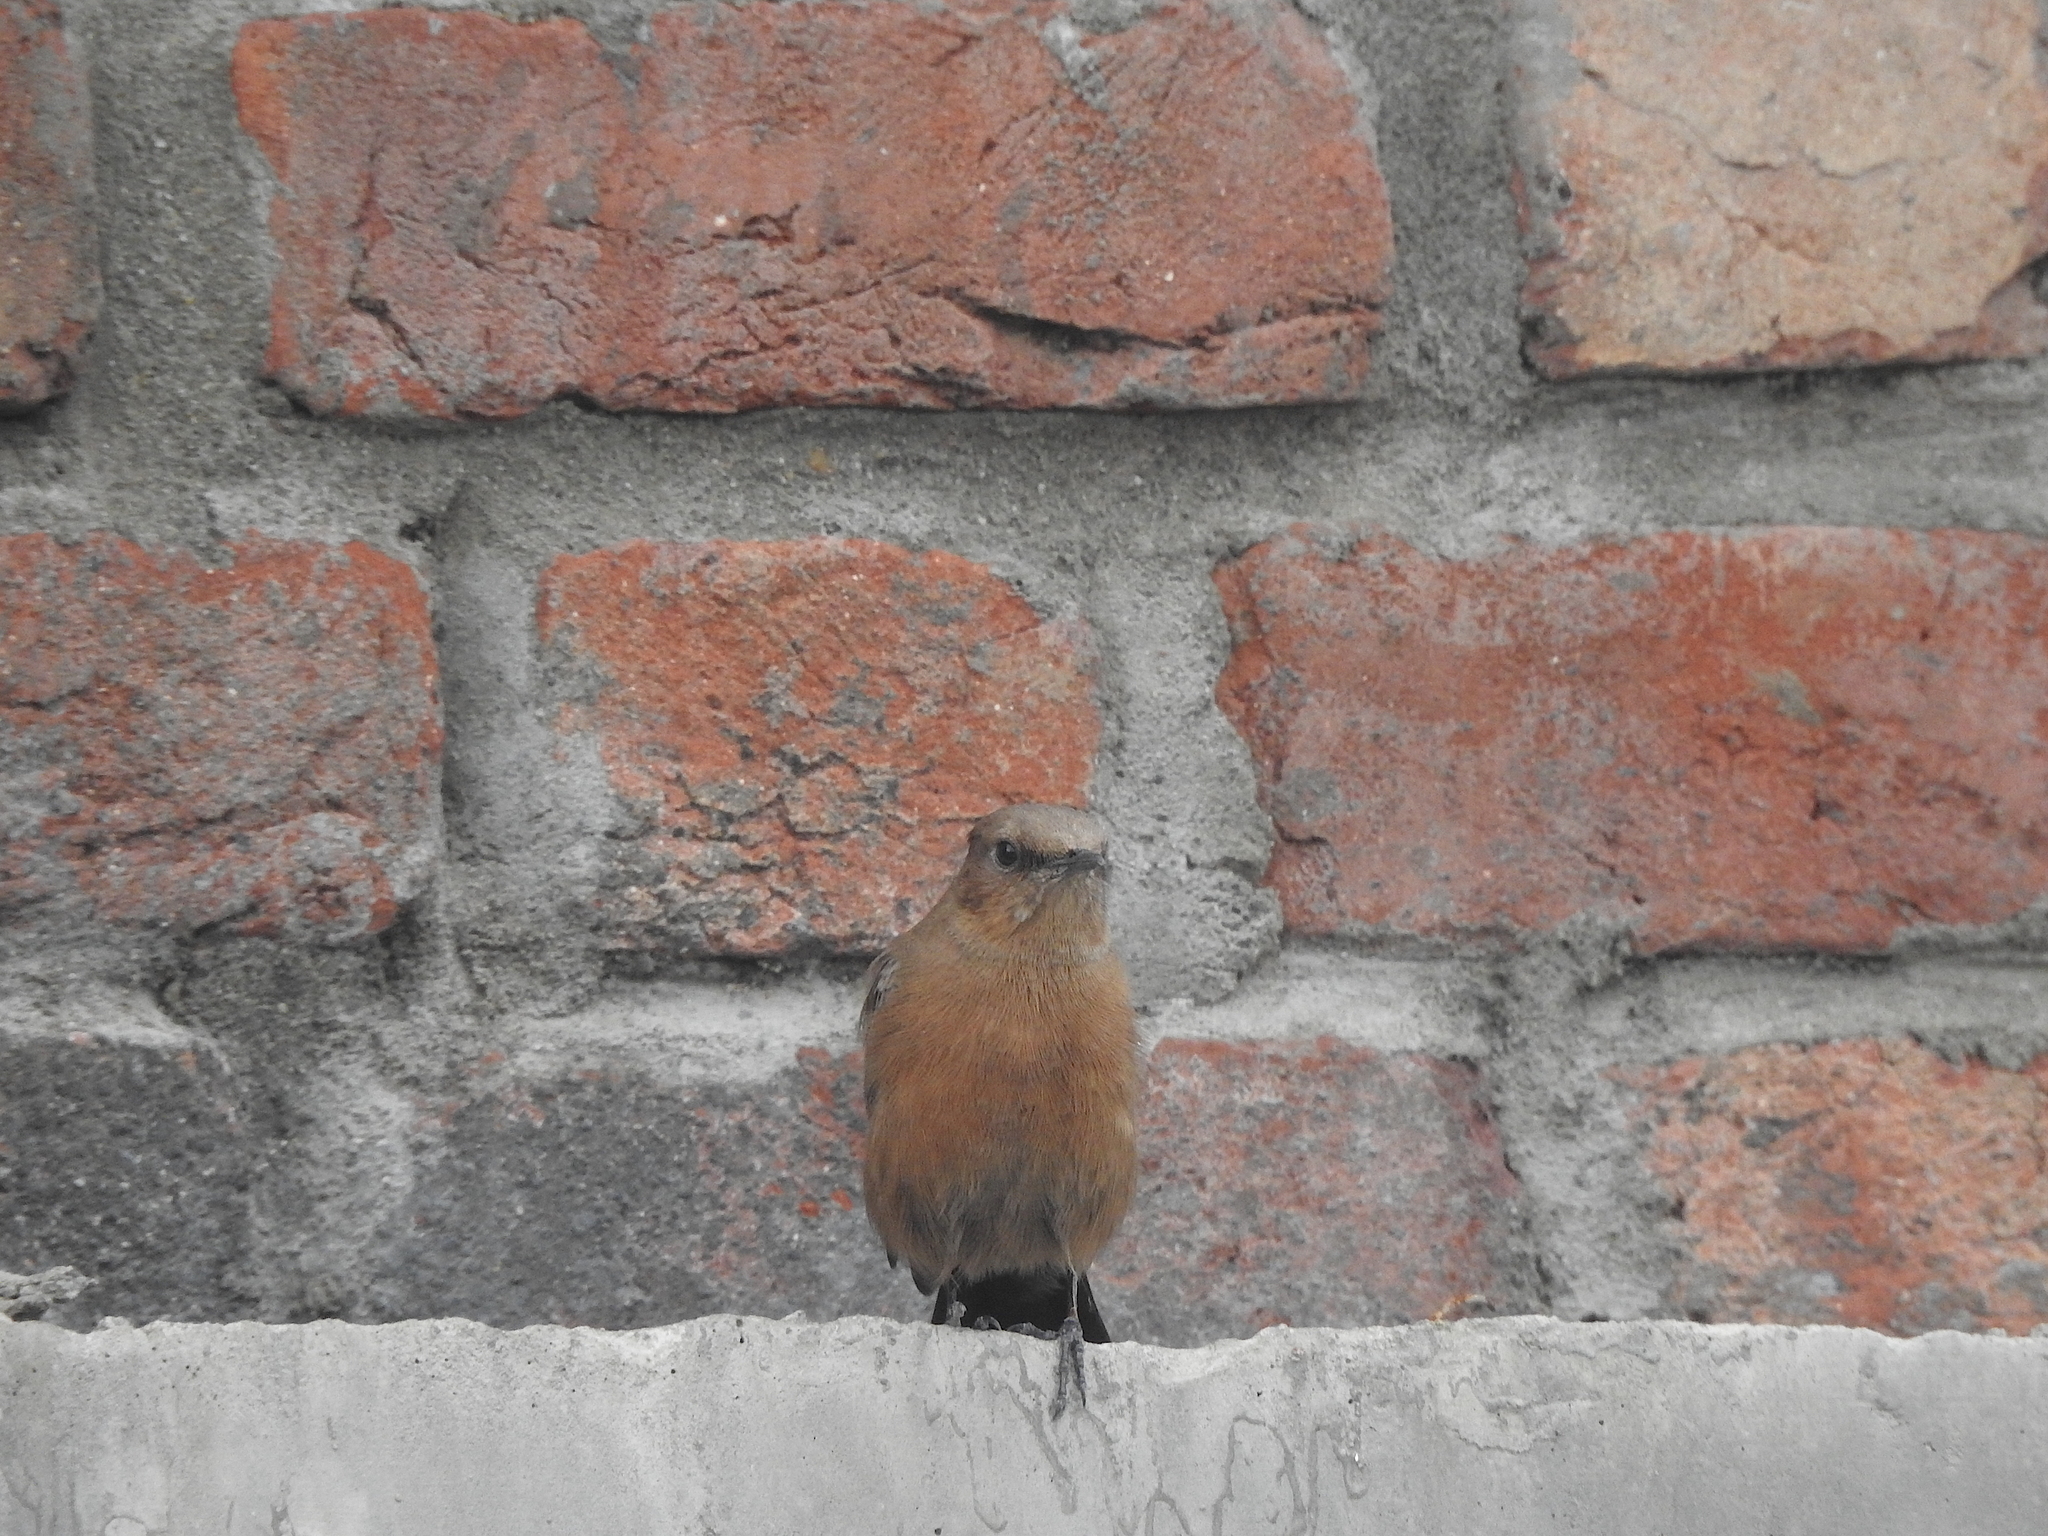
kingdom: Animalia
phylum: Chordata
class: Aves
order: Passeriformes
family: Muscicapidae
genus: Oenanthe
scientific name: Oenanthe fusca
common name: Brown rock chat
